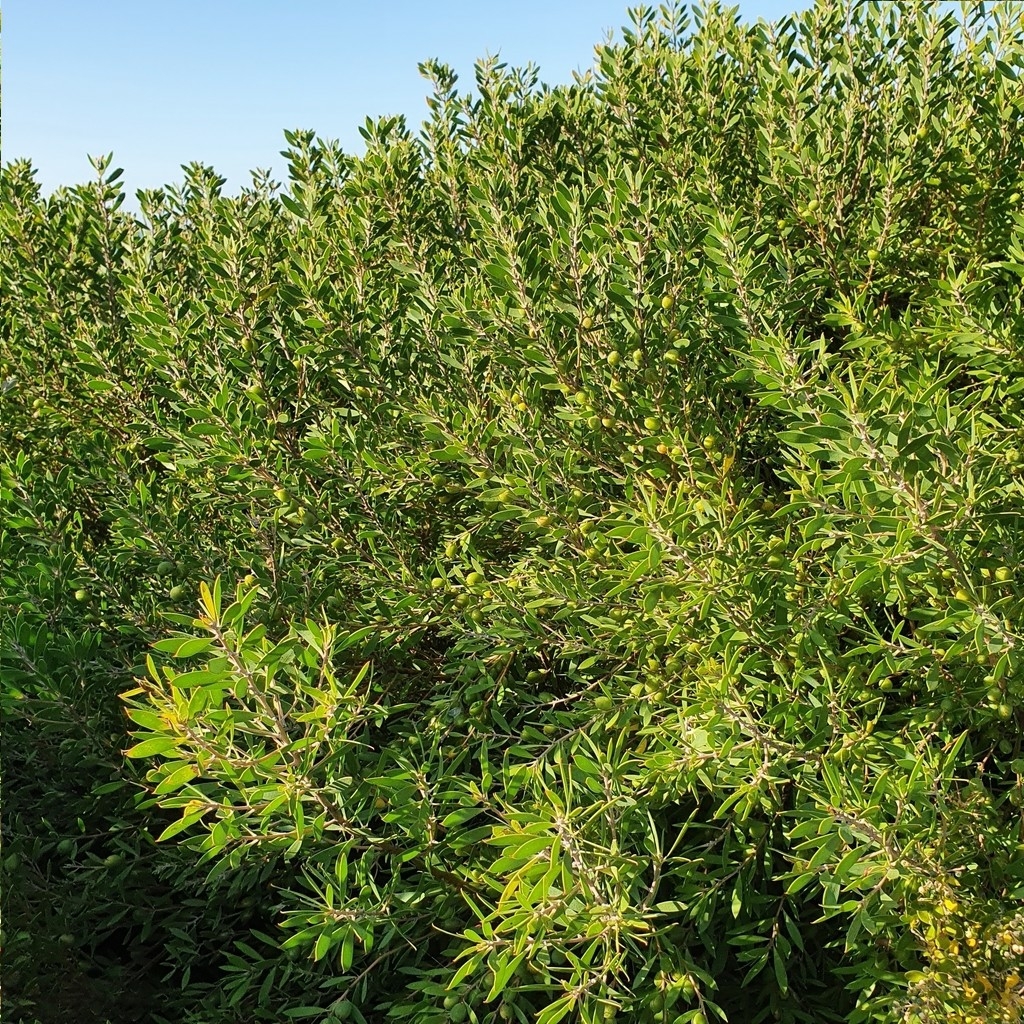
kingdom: Plantae
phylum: Tracheophyta
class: Magnoliopsida
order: Proteales
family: Proteaceae
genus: Persoonia
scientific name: Persoonia lanceolata
